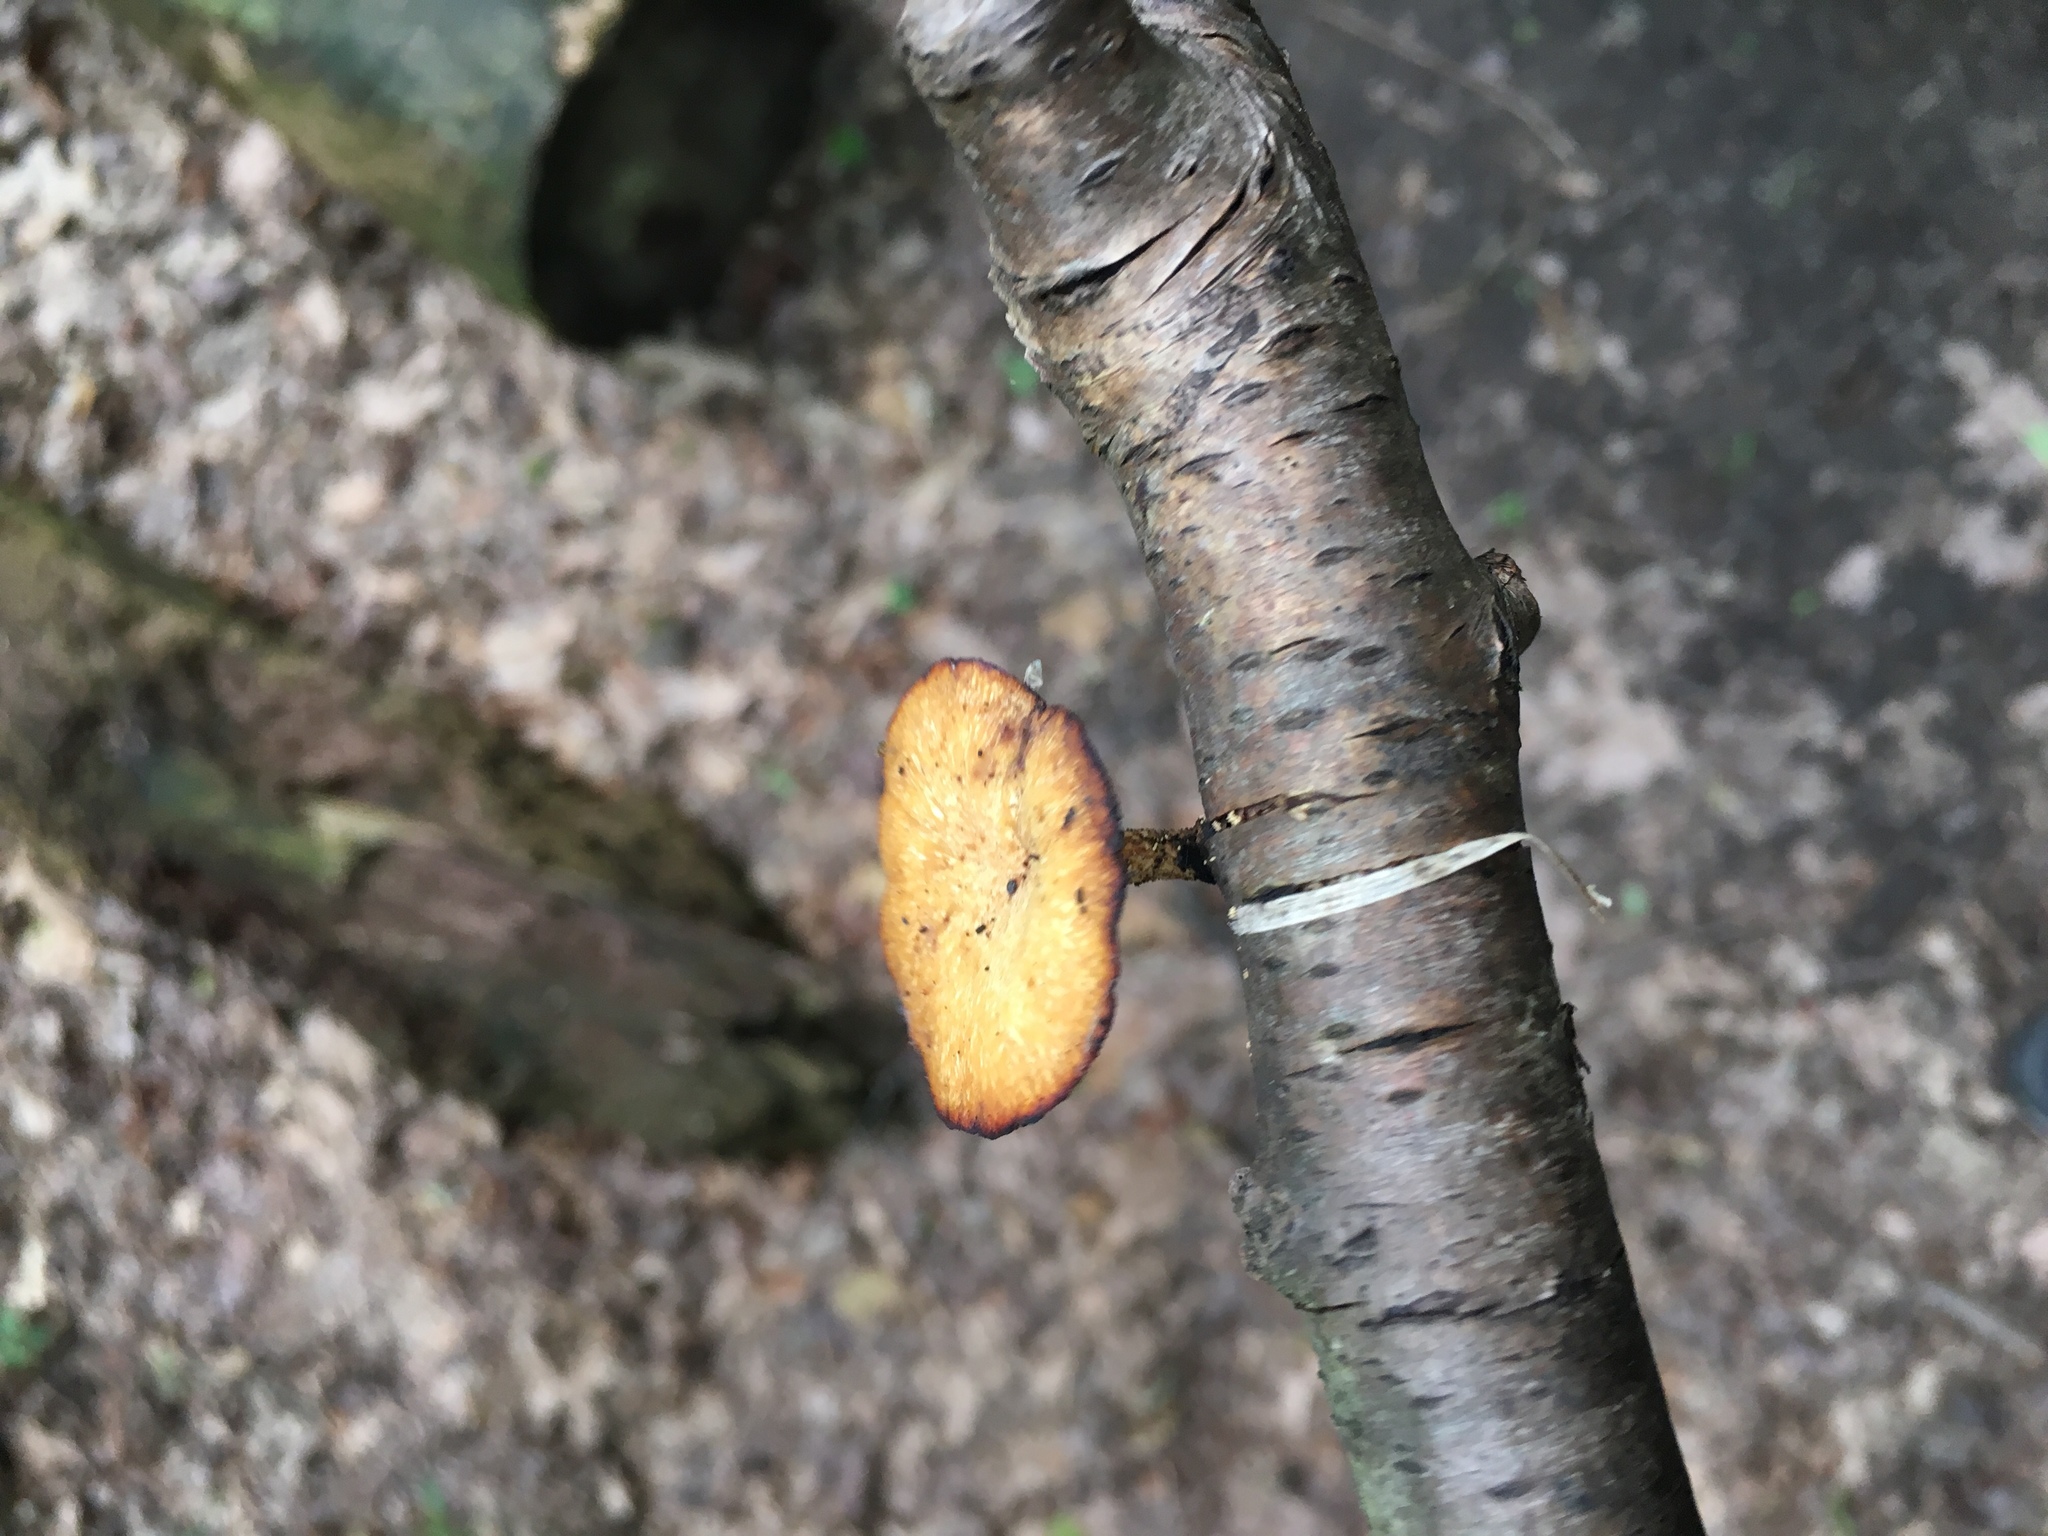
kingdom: Fungi
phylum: Basidiomycota
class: Agaricomycetes
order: Polyporales
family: Polyporaceae
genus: Cerioporus
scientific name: Cerioporus varius
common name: Elegant polypore
